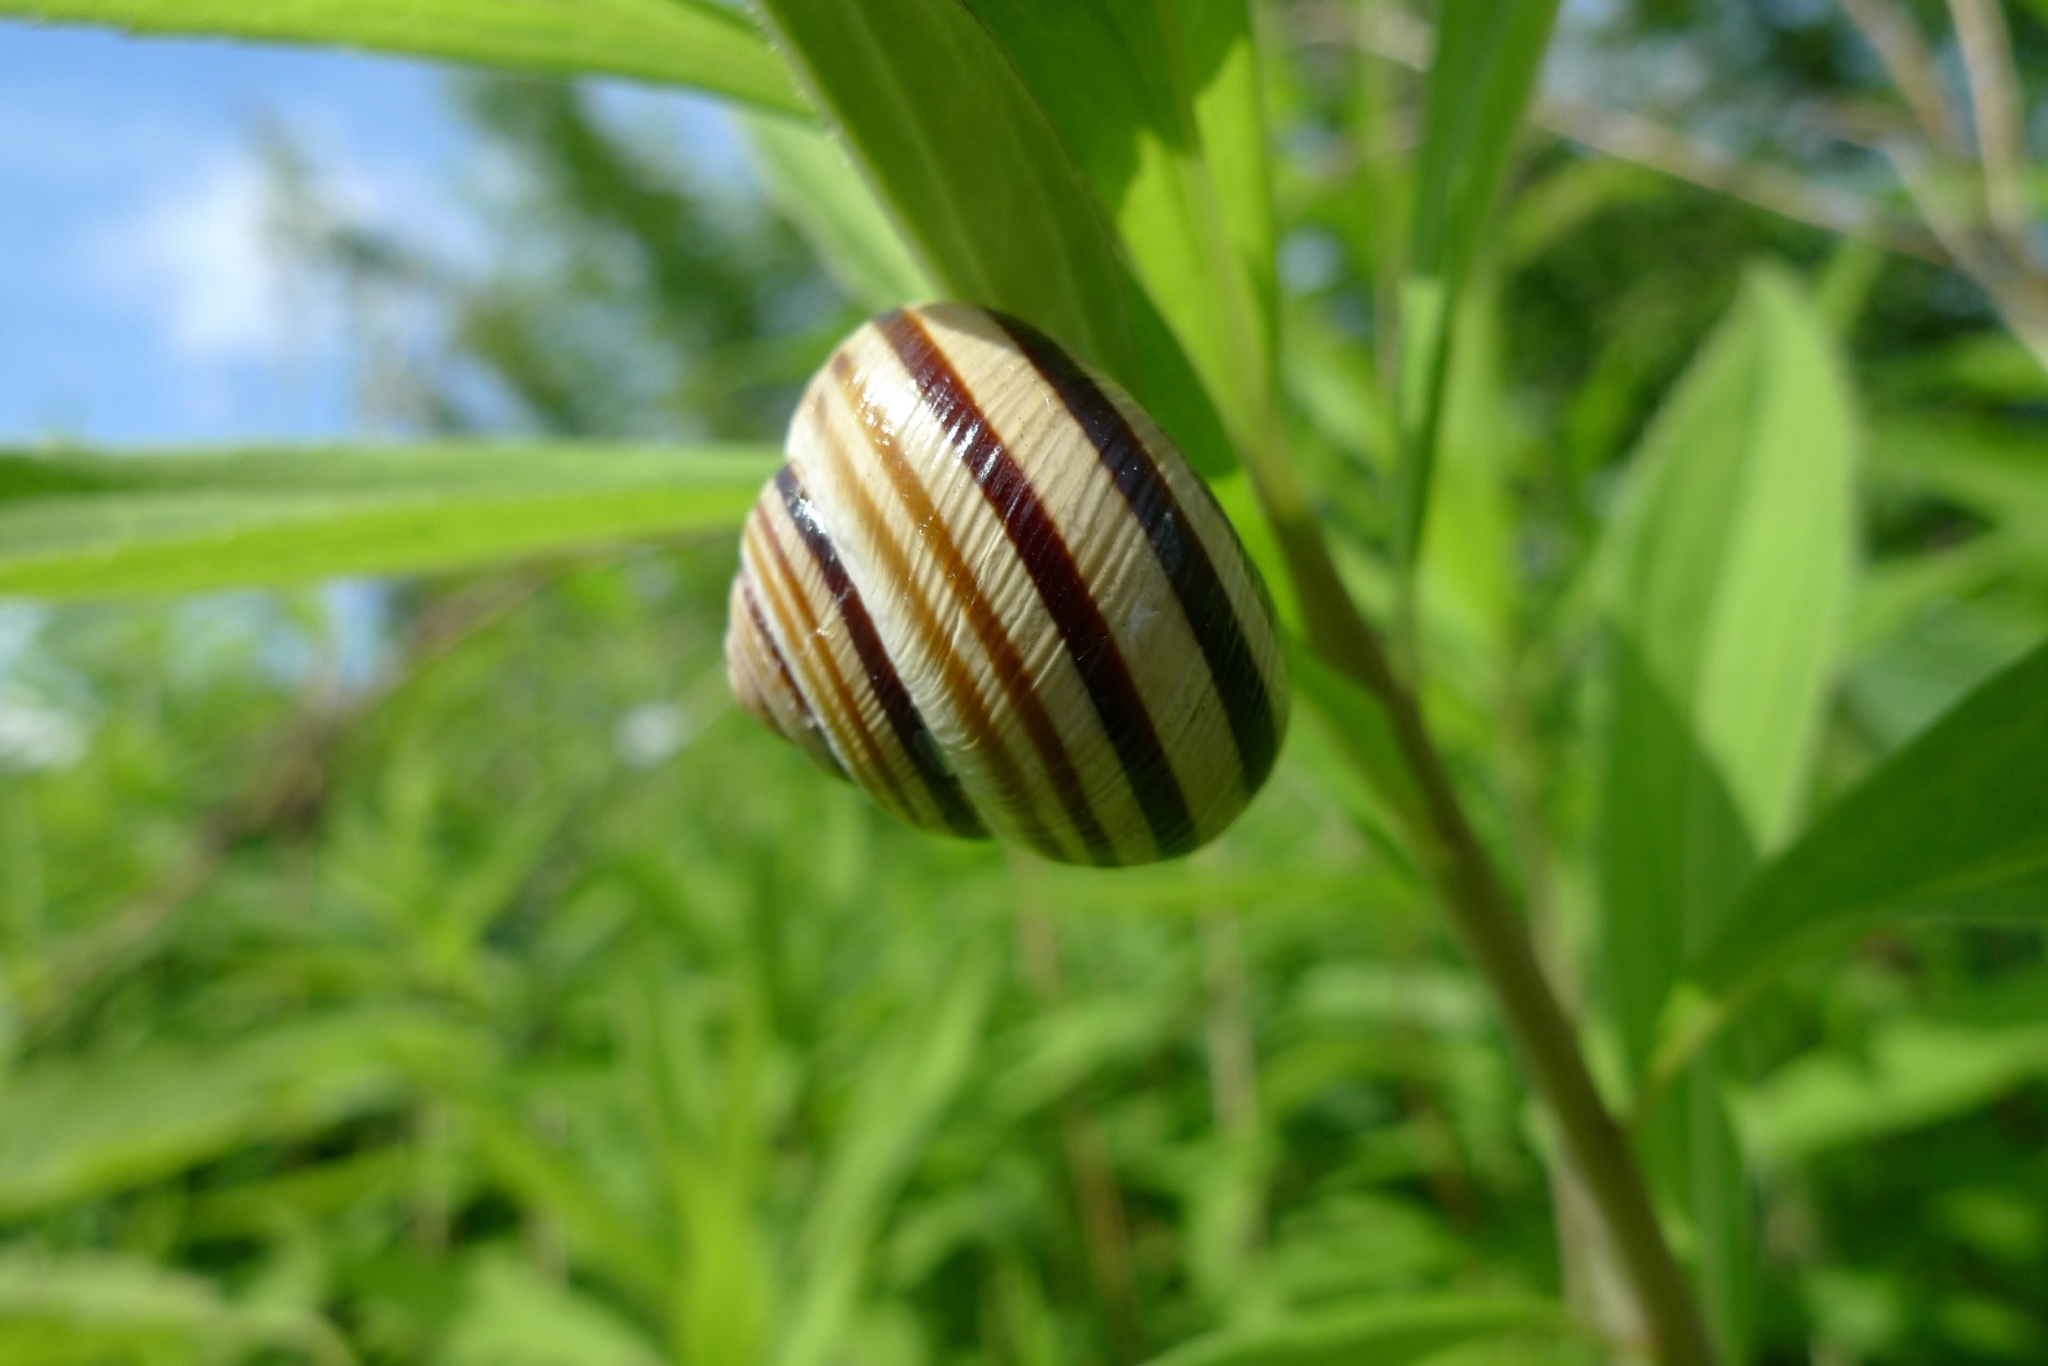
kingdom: Animalia
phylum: Mollusca
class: Gastropoda
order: Stylommatophora
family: Helicidae
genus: Caucasotachea
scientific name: Caucasotachea vindobonensis
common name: European helicid land snail
